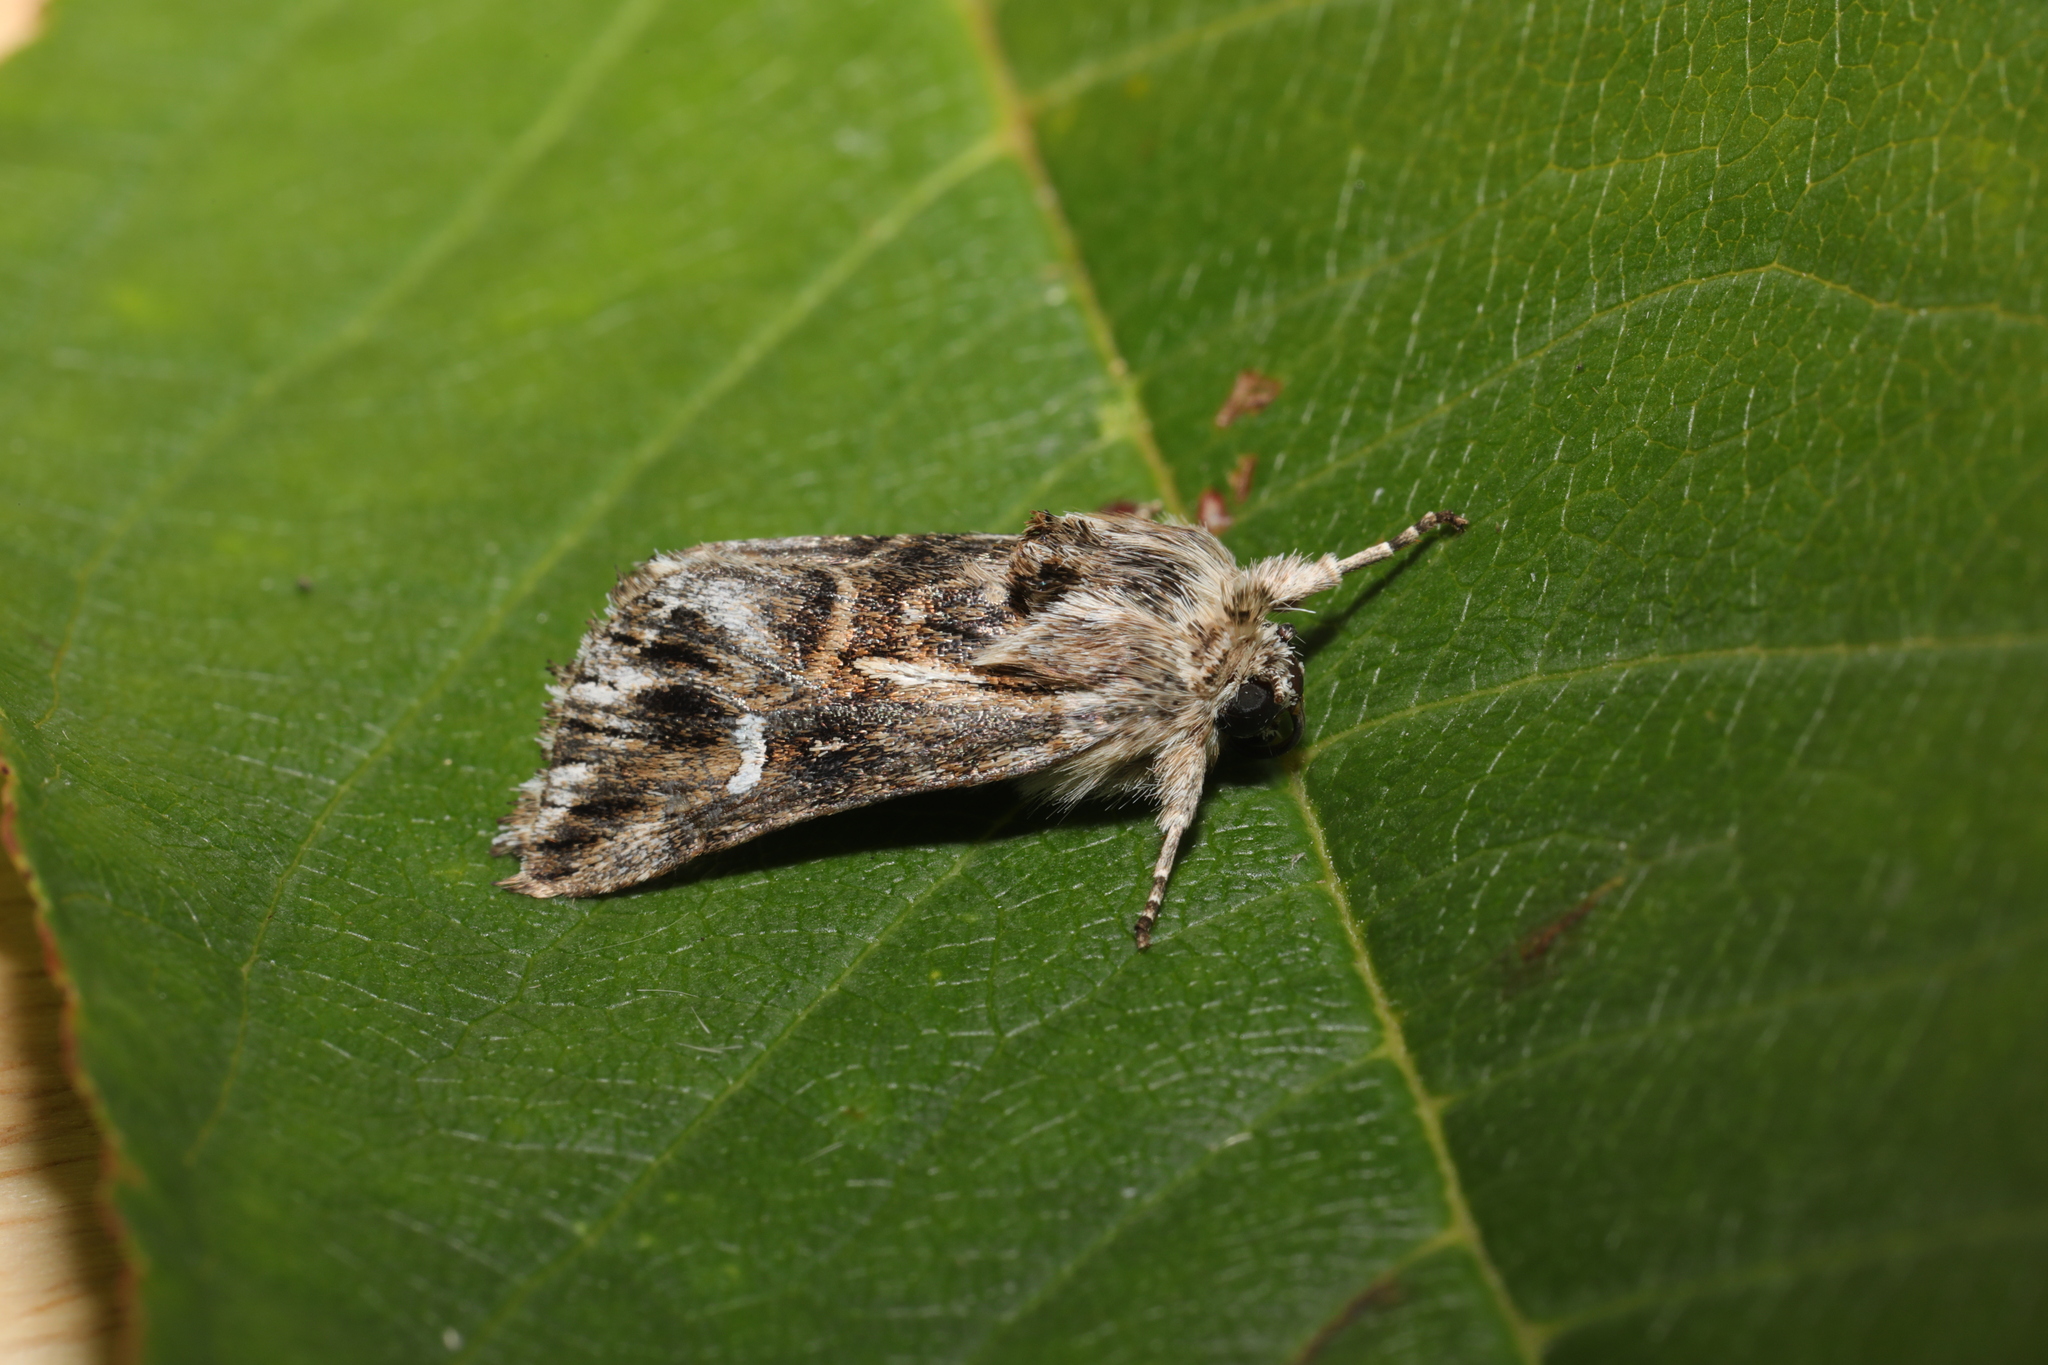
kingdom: Animalia
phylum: Arthropoda
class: Insecta
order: Lepidoptera
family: Noctuidae
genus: Calophasia
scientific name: Calophasia lunula
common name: Toadflax brocade
